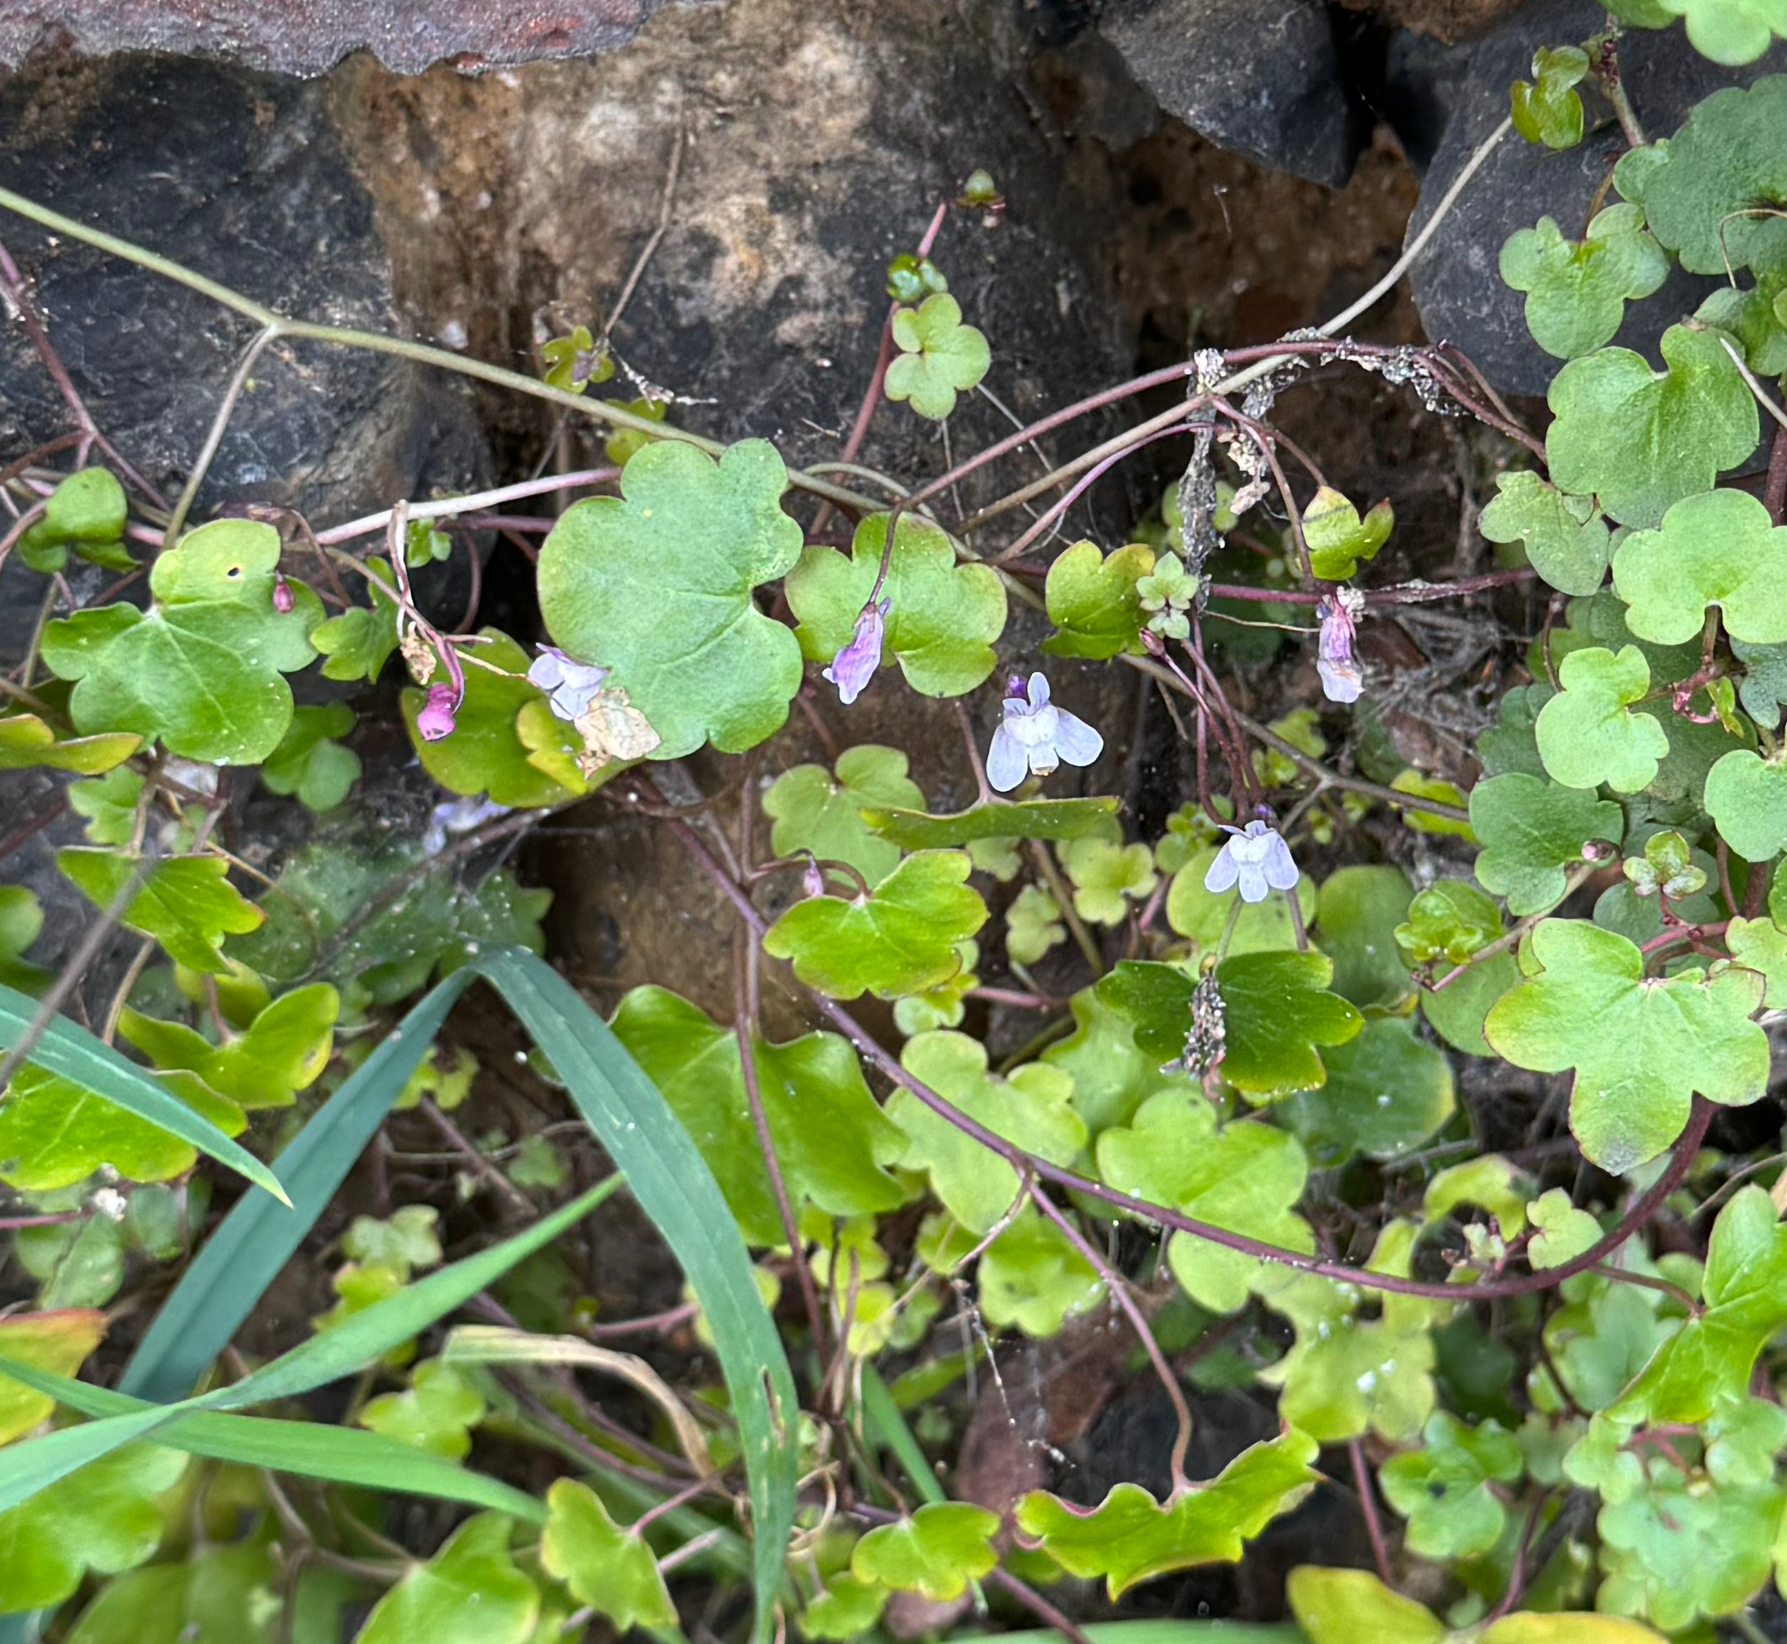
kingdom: Plantae
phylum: Tracheophyta
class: Magnoliopsida
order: Lamiales
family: Plantaginaceae
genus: Cymbalaria
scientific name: Cymbalaria muralis
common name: Ivy-leaved toadflax
